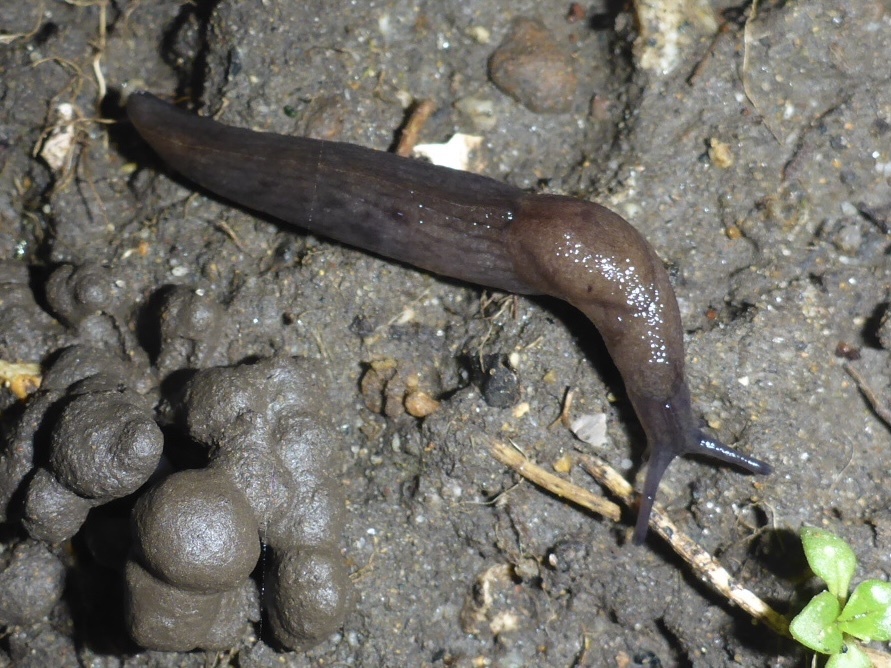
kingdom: Animalia
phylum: Mollusca
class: Gastropoda
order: Stylommatophora
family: Milacidae
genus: Milax
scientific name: Milax gagates
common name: Greenhouse slug
